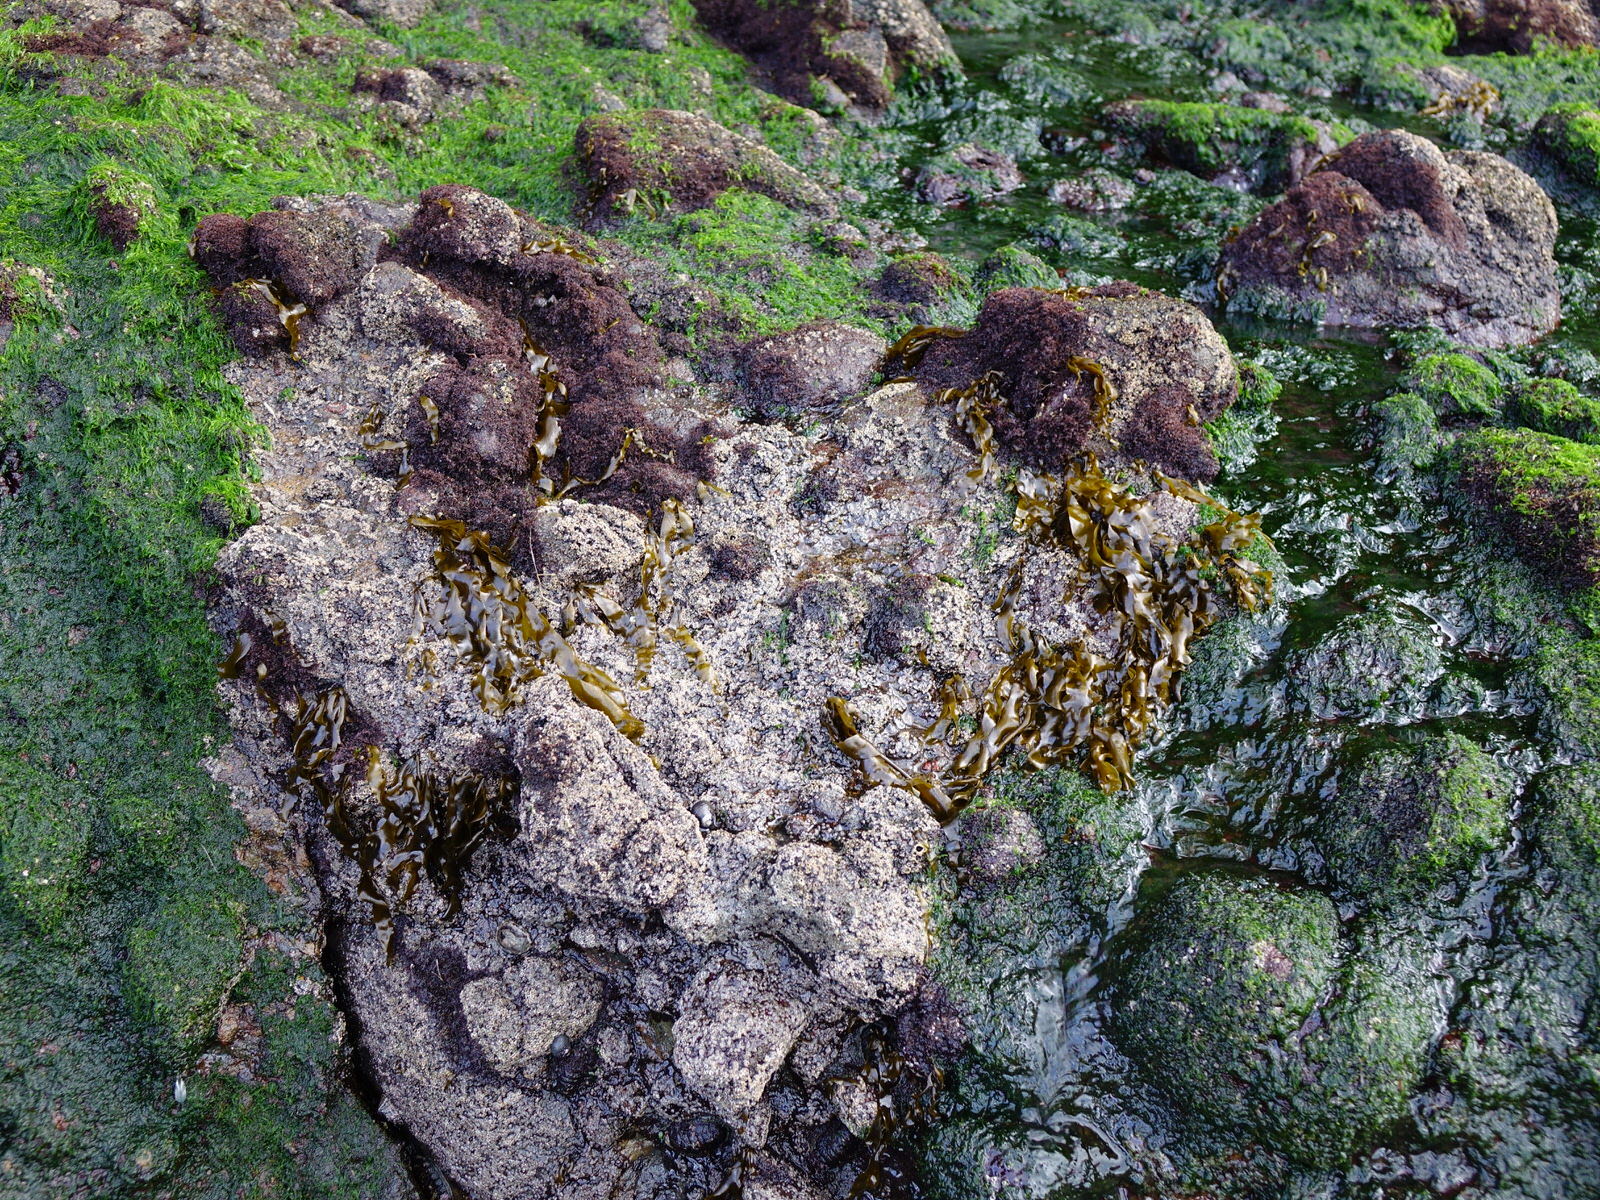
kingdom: Chromista
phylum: Ochrophyta
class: Phaeophyceae
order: Scytosiphonales
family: Scytosiphonaceae
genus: Petalonia
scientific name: Petalonia binghamiae
